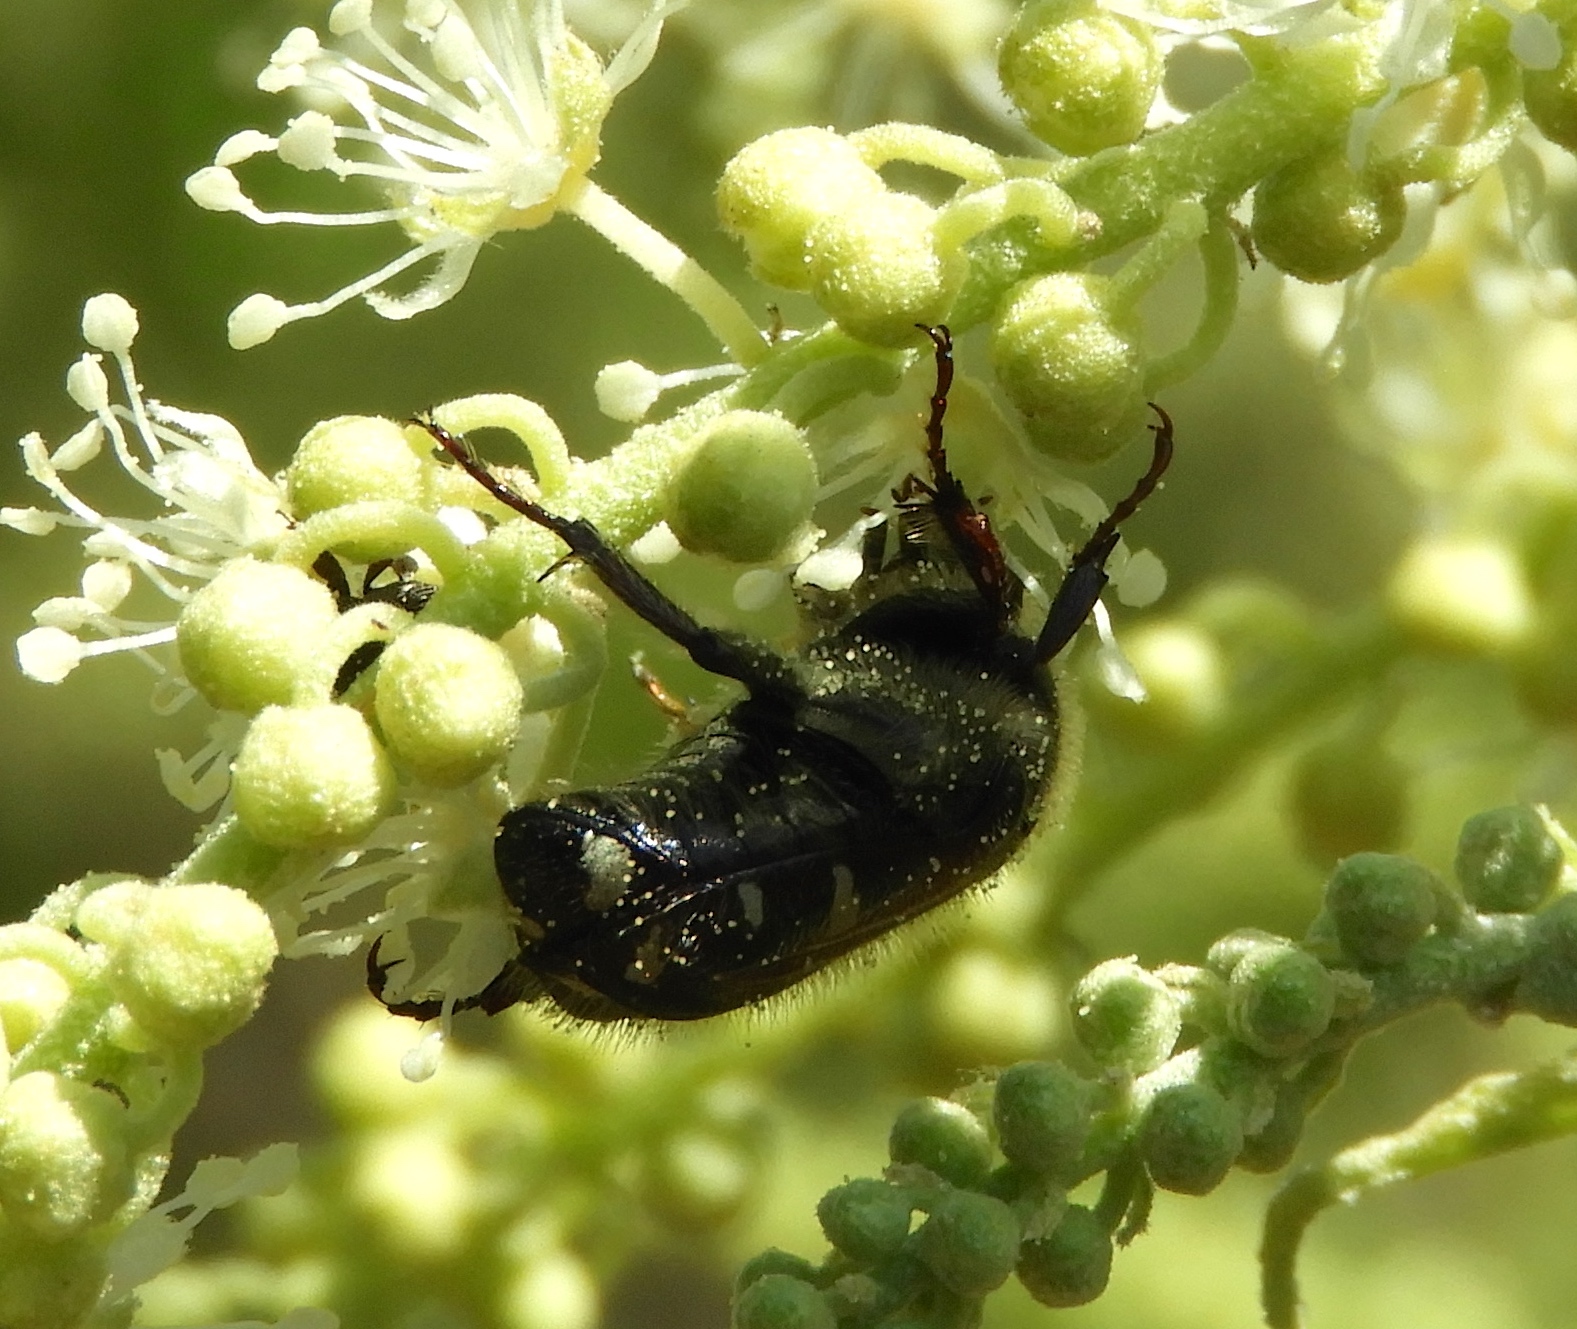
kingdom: Animalia
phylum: Arthropoda
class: Insecta
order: Coleoptera
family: Scarabaeidae
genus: Euphoria
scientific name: Euphoria
